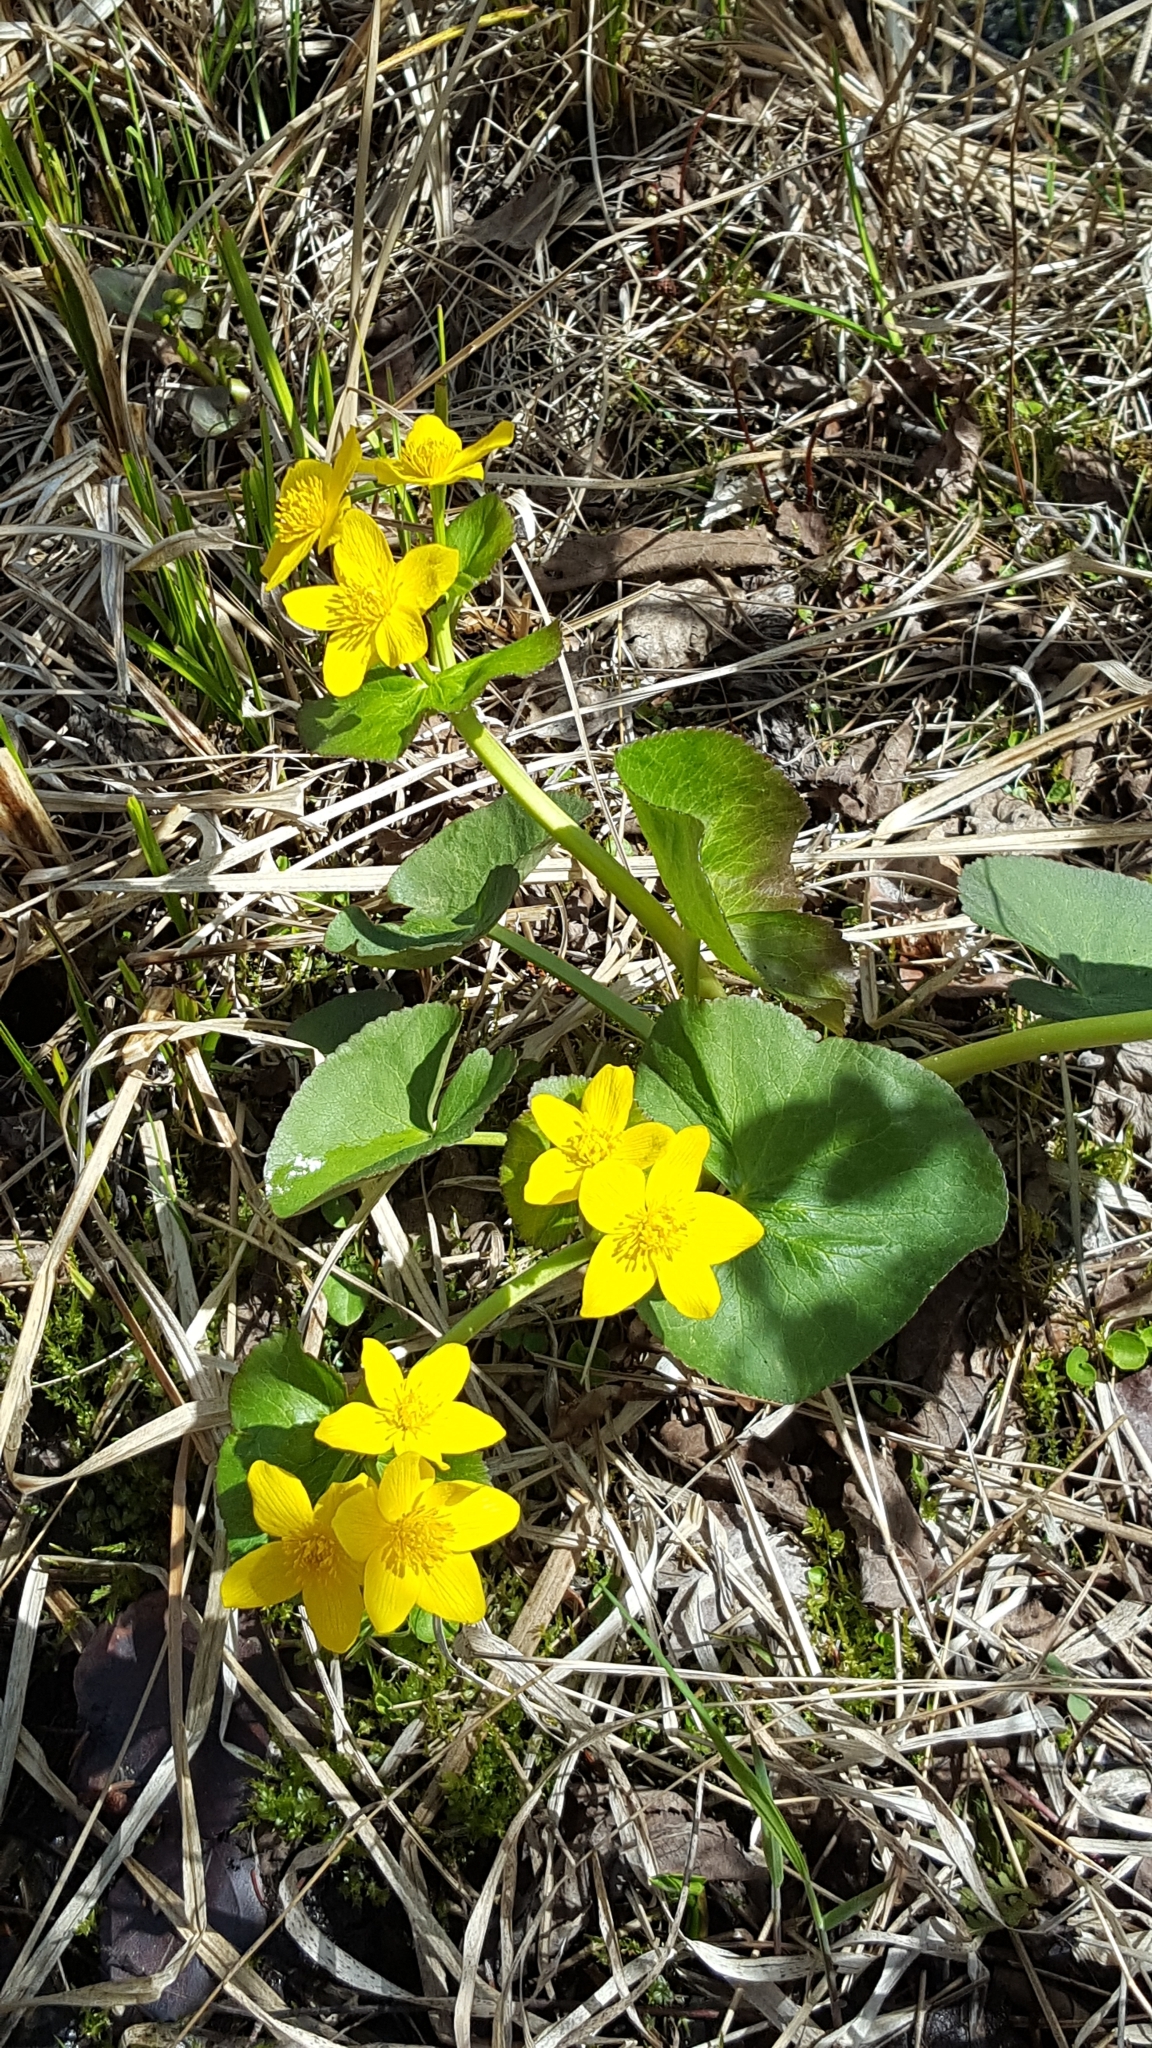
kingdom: Plantae
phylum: Tracheophyta
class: Magnoliopsida
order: Ranunculales
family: Ranunculaceae
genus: Caltha
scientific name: Caltha palustris
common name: Marsh marigold
